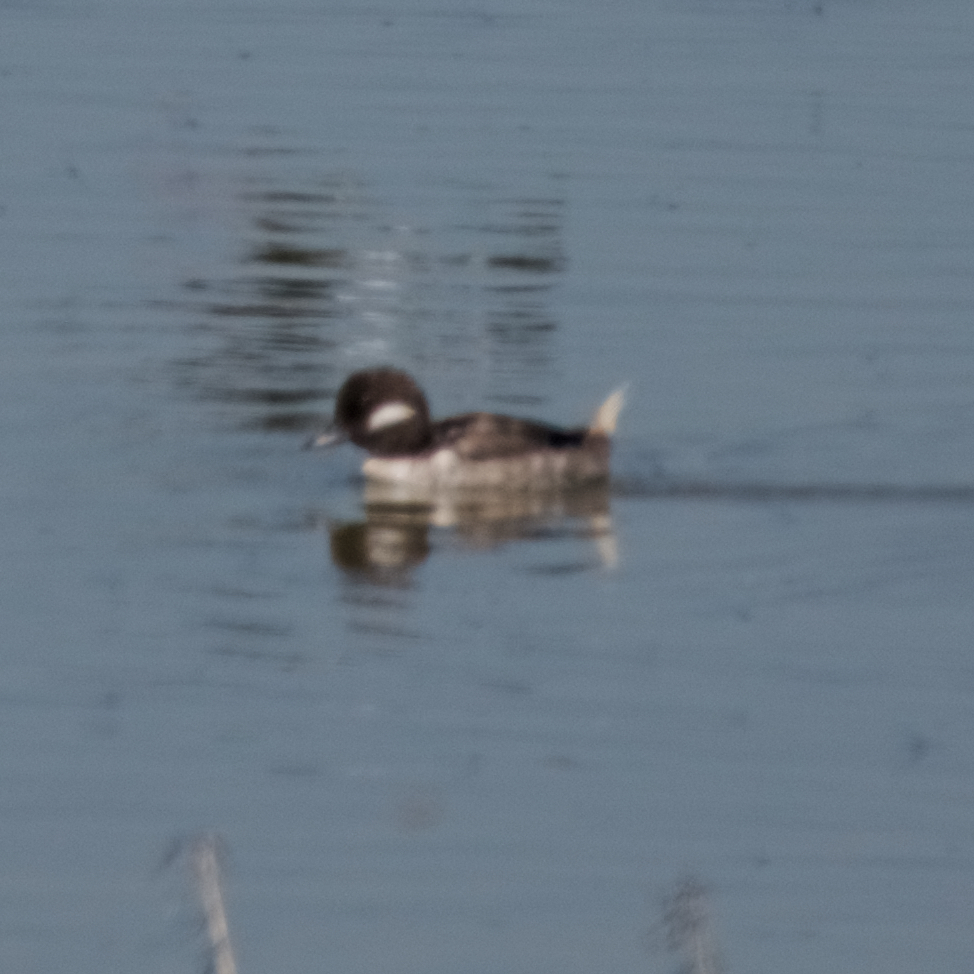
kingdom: Animalia
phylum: Chordata
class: Aves
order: Anseriformes
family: Anatidae
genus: Bucephala
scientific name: Bucephala albeola
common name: Bufflehead
